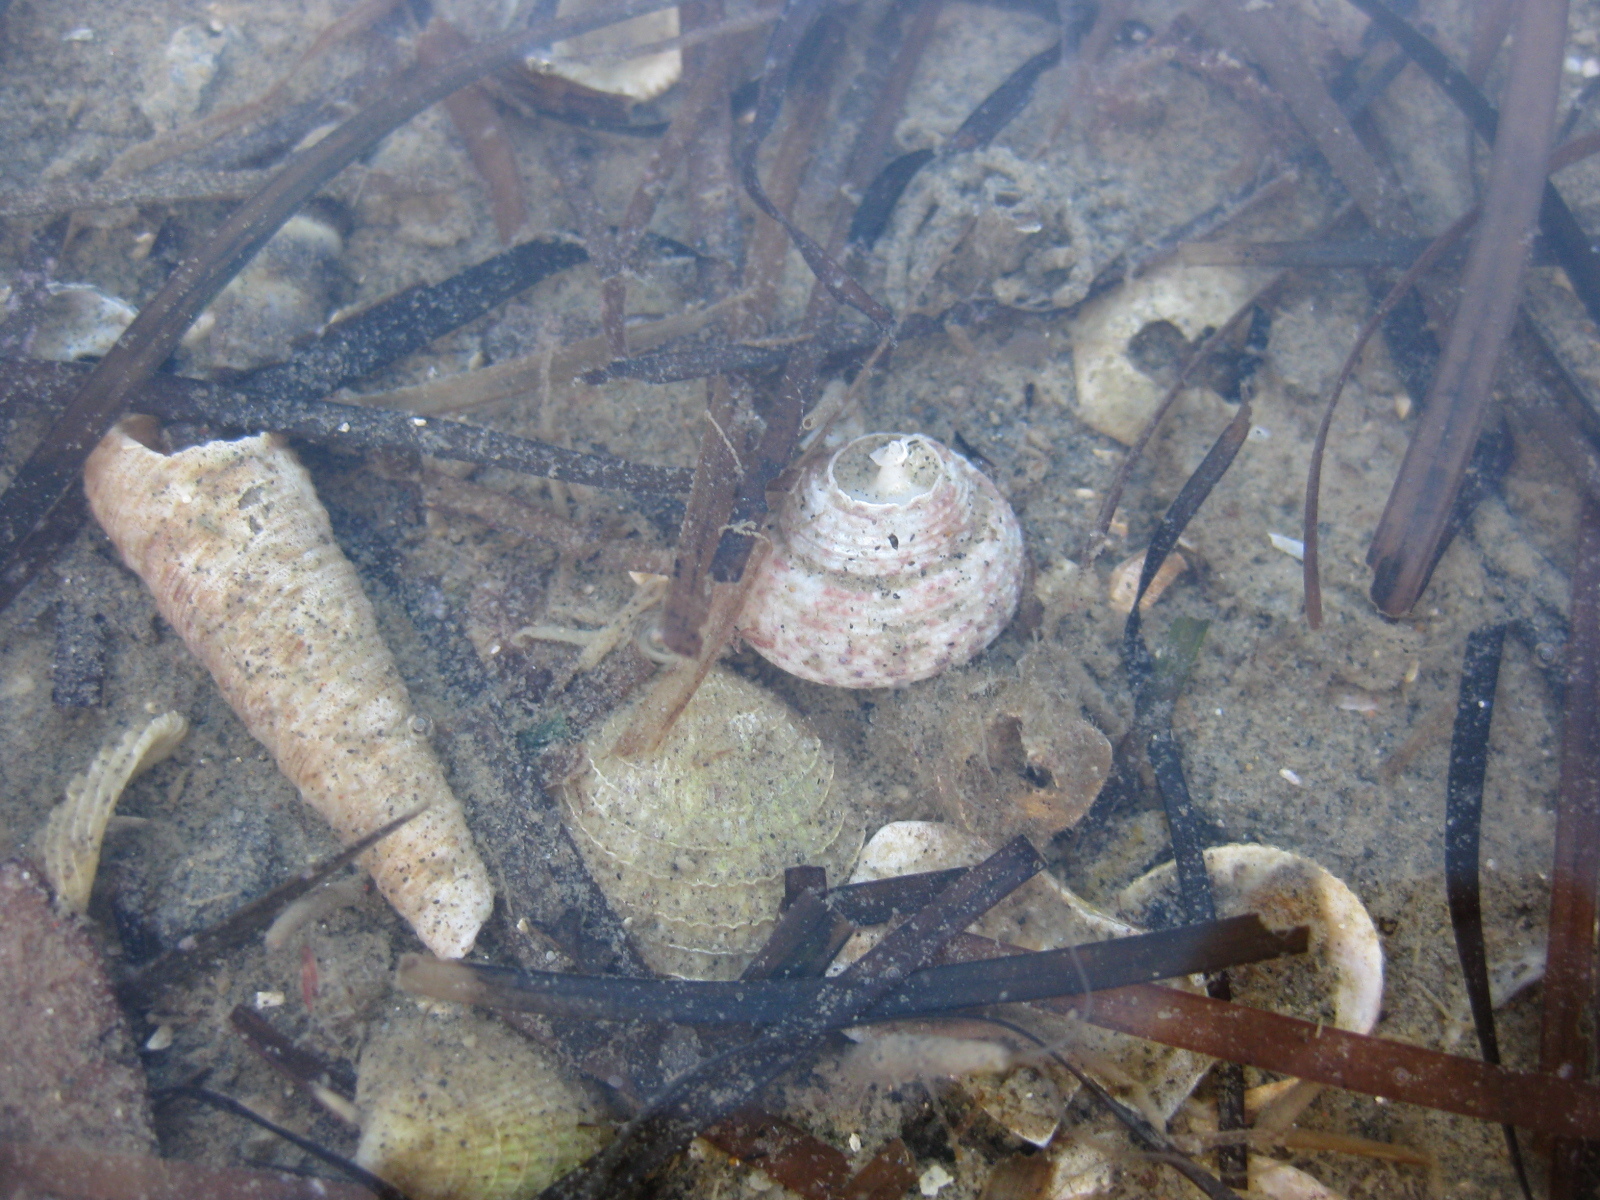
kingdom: Animalia
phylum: Mollusca
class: Gastropoda
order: Trochida
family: Trochidae
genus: Coelotrochus
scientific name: Coelotrochus tiaratus
